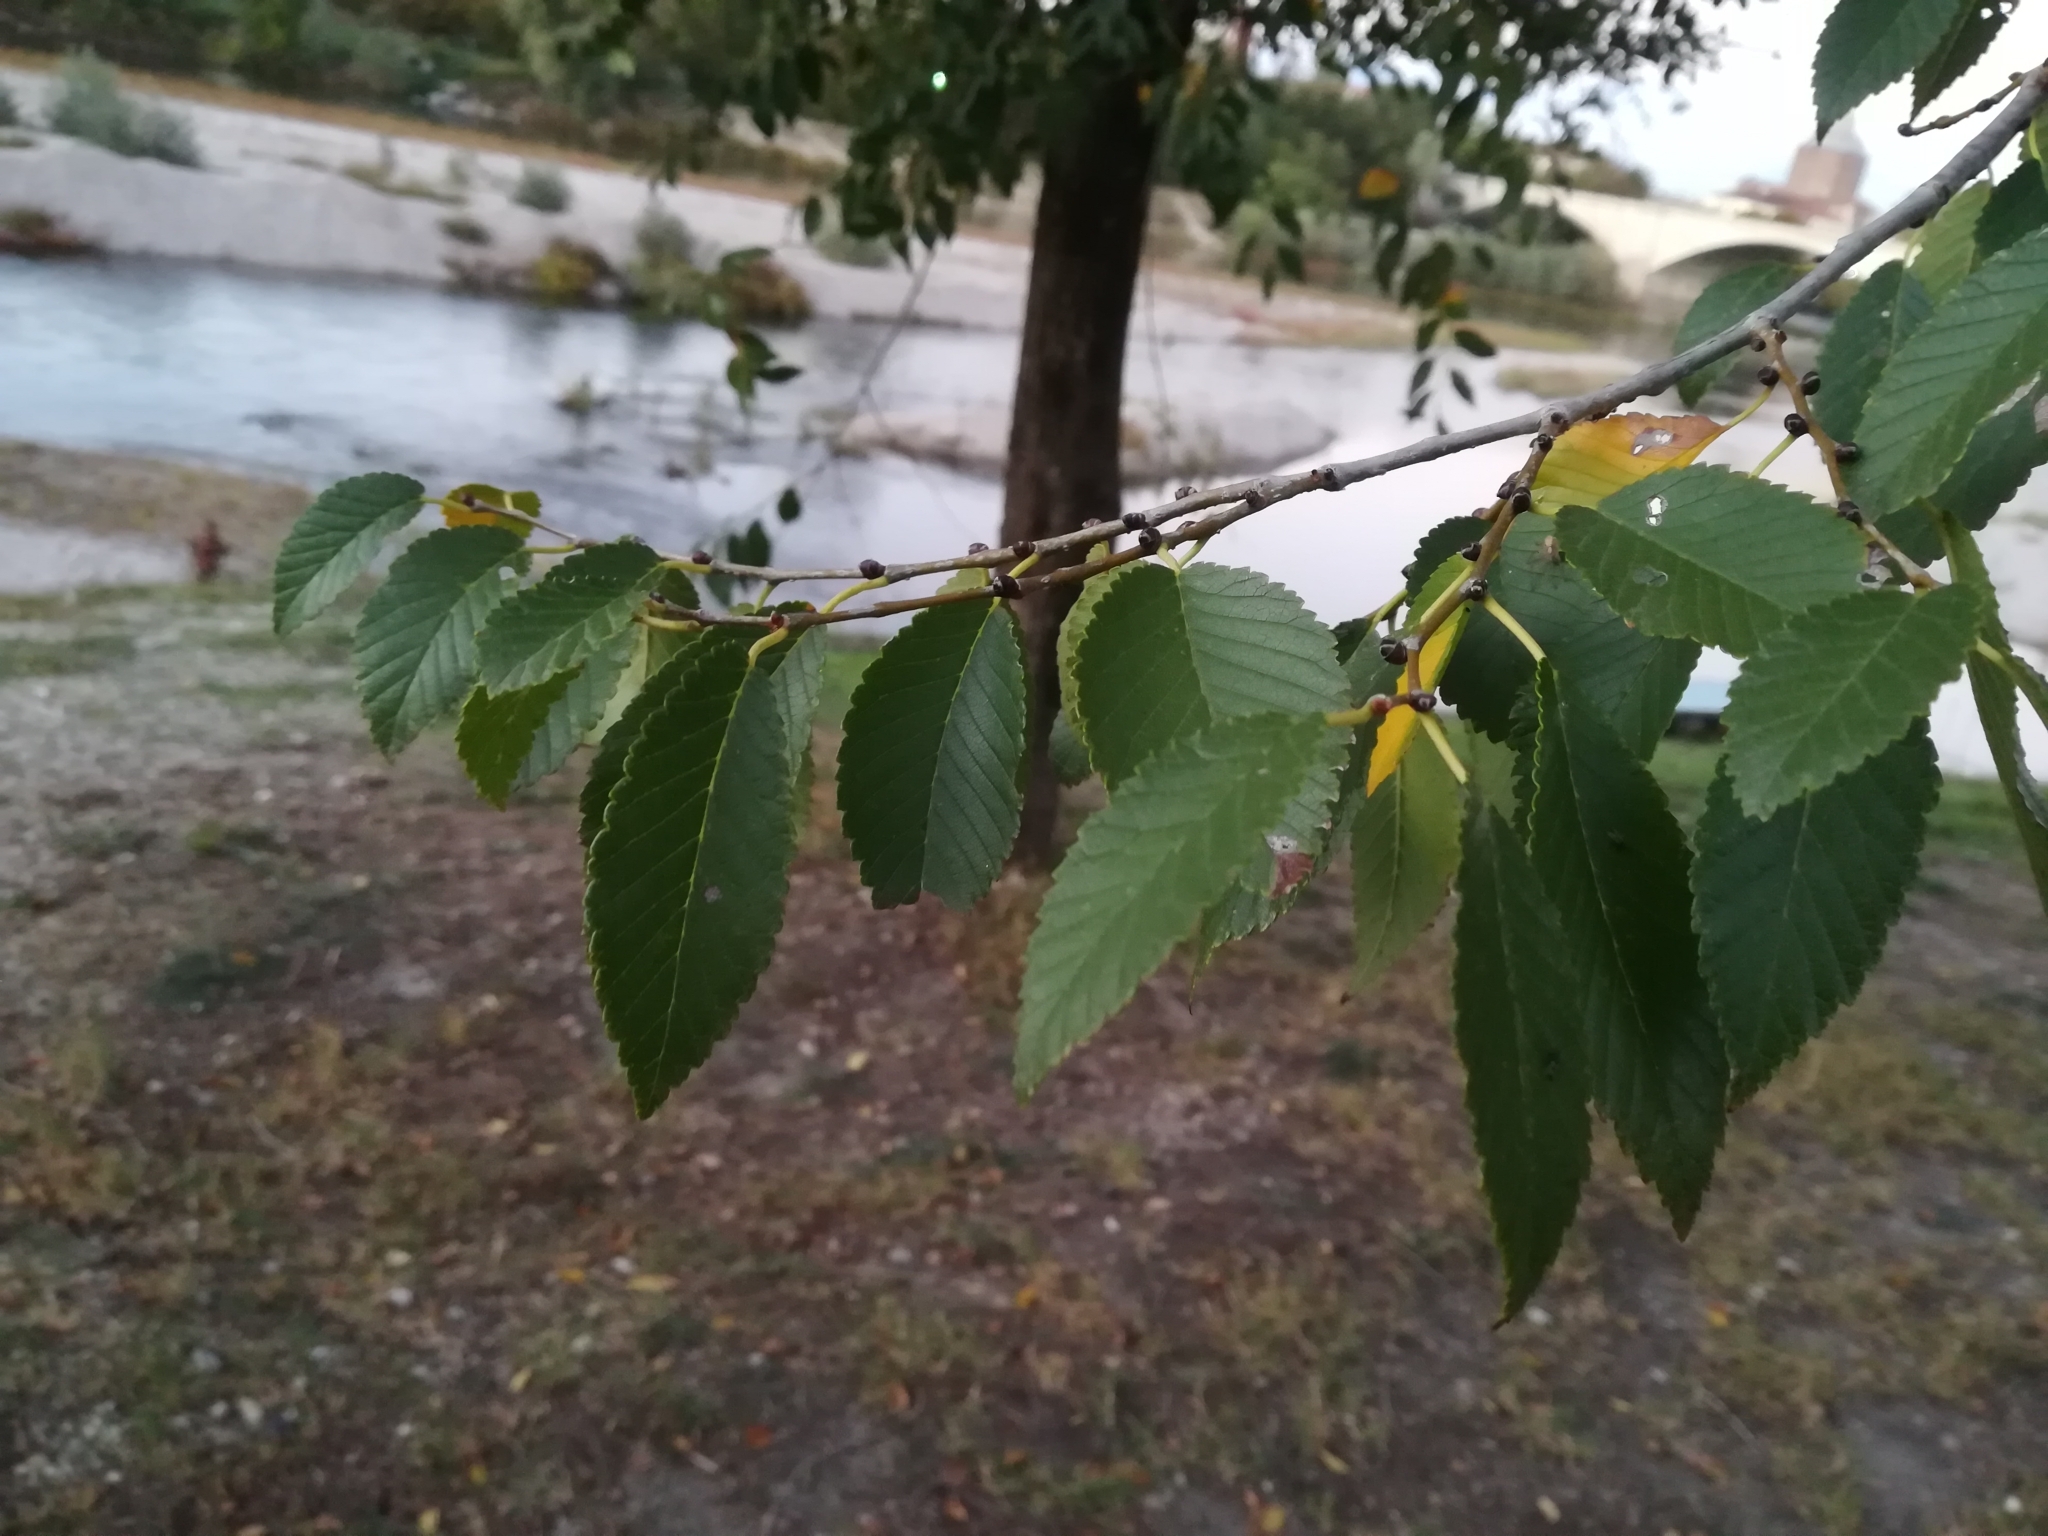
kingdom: Plantae
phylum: Tracheophyta
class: Magnoliopsida
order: Rosales
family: Ulmaceae
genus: Ulmus
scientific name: Ulmus pumila
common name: Siberian elm
